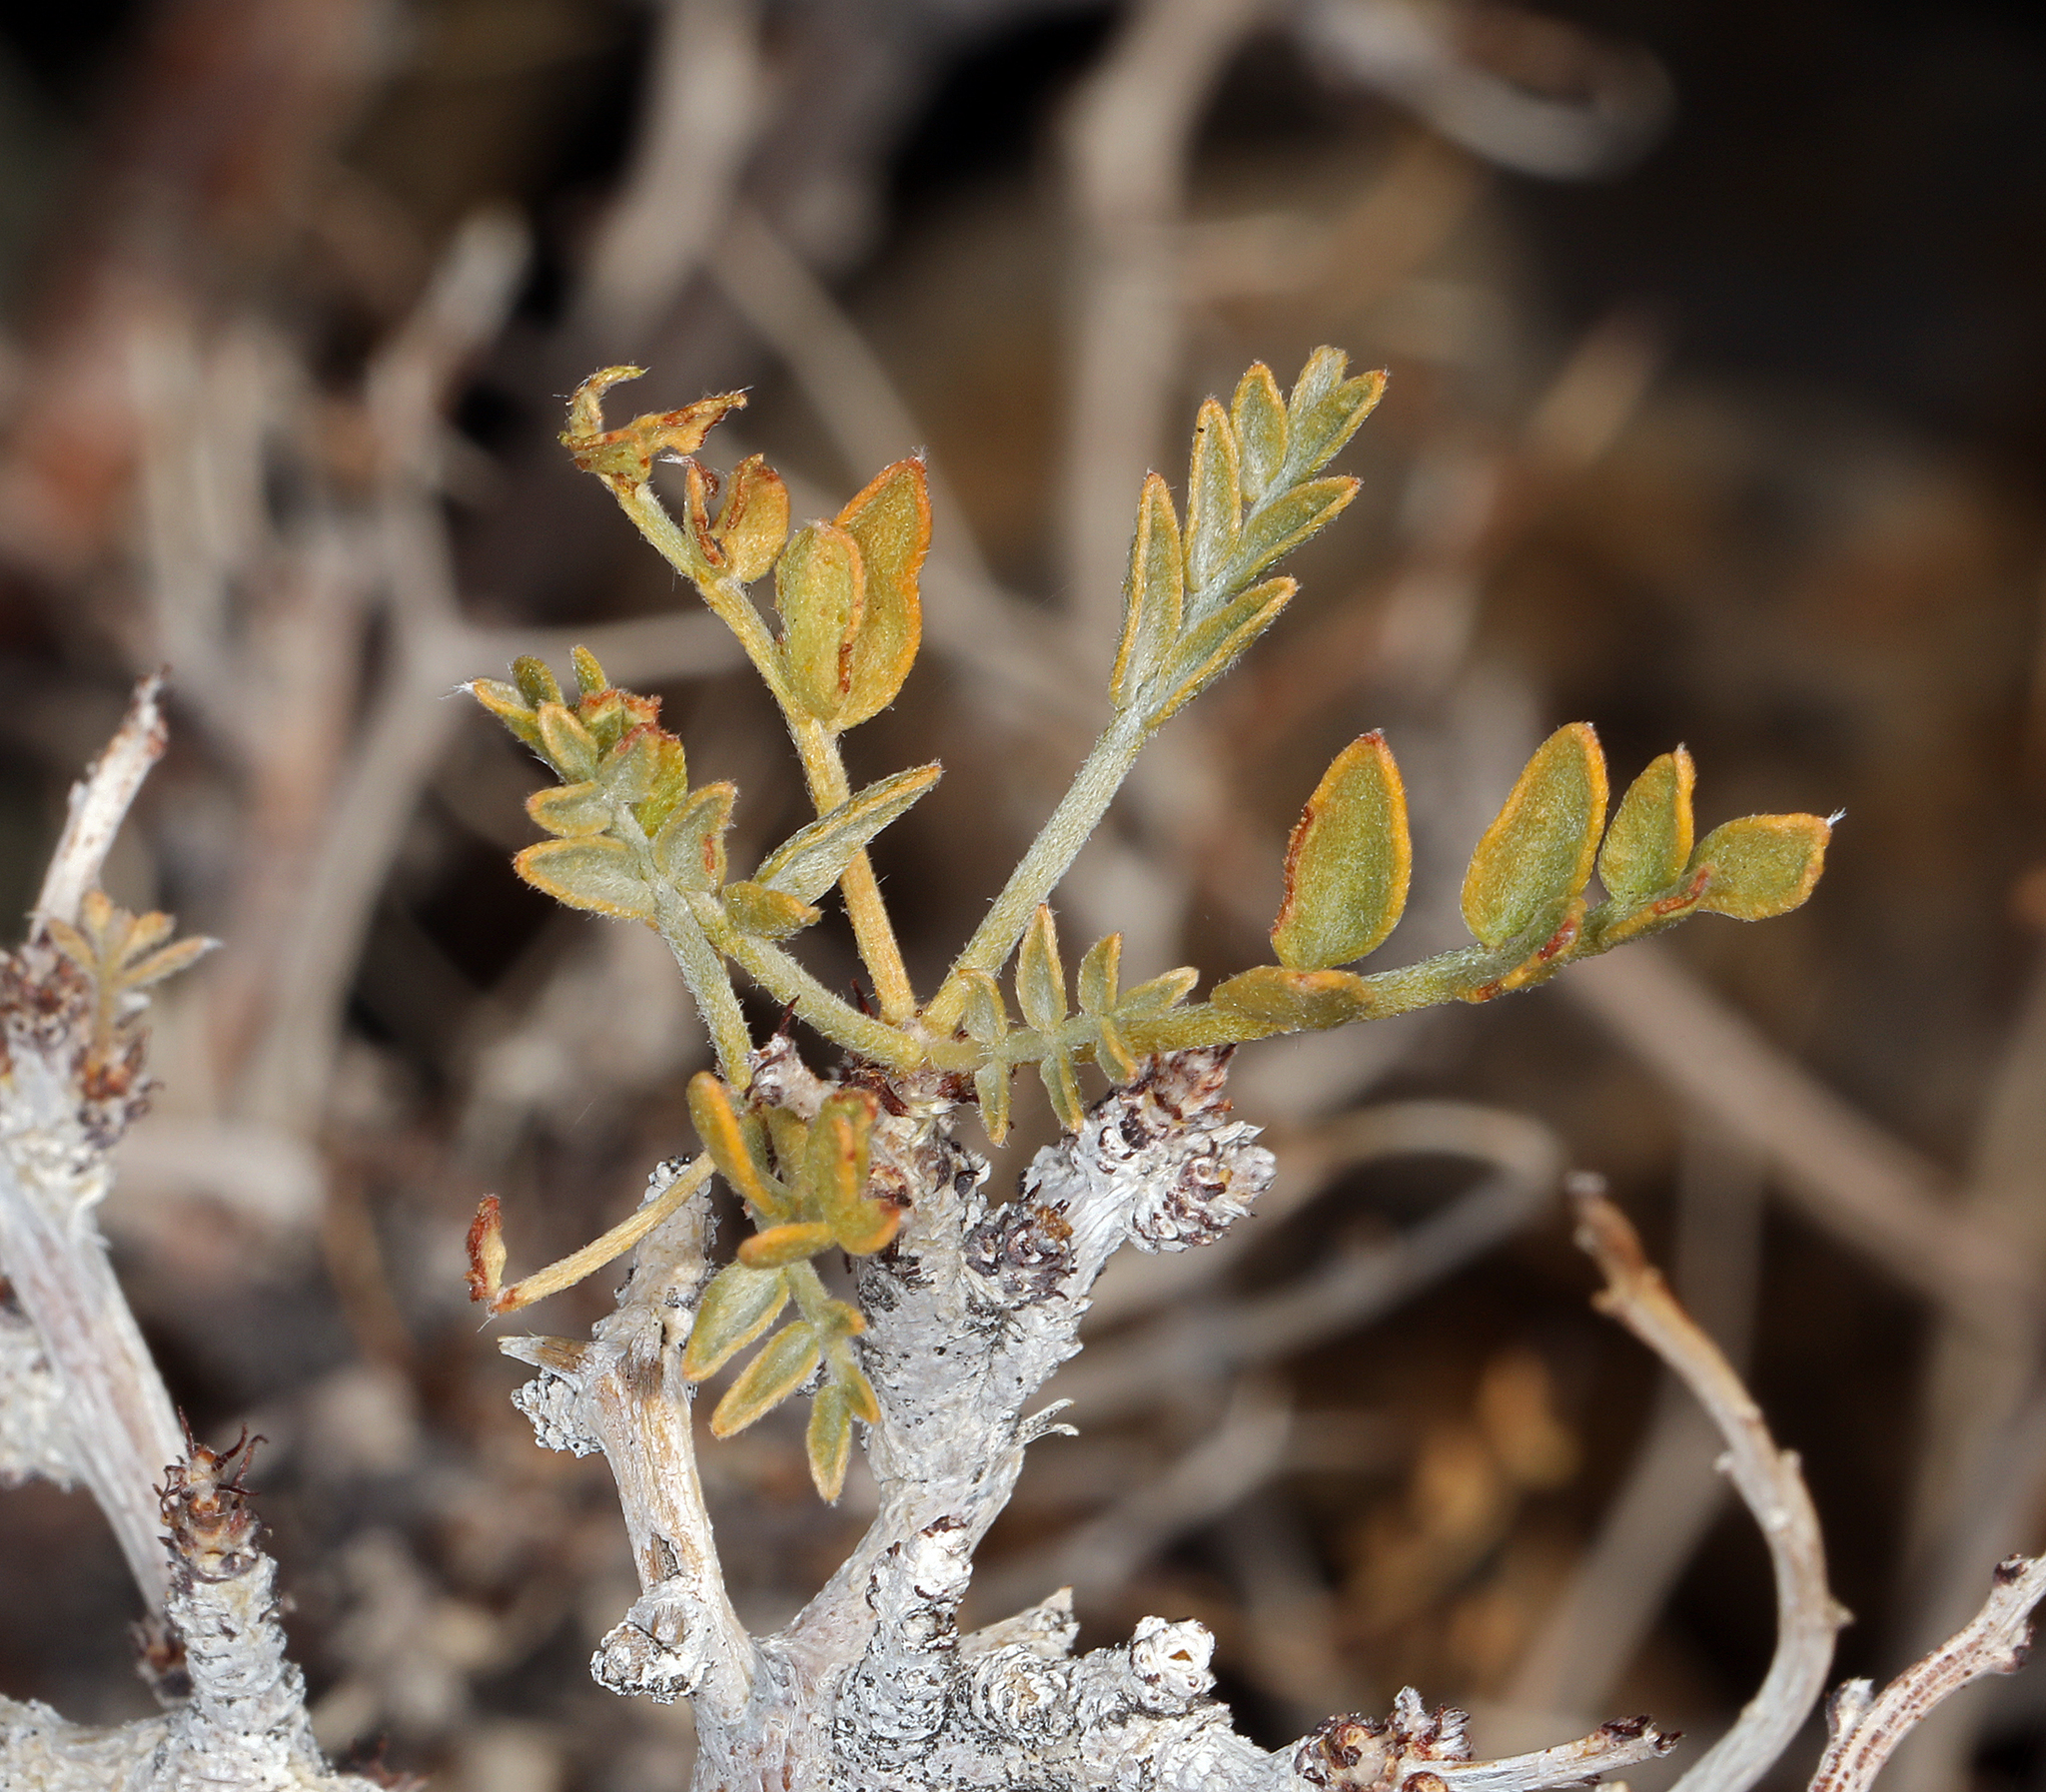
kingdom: Plantae
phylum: Tracheophyta
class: Magnoliopsida
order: Fabales
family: Fabaceae
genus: Psorothamnus
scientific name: Psorothamnus arborescens
